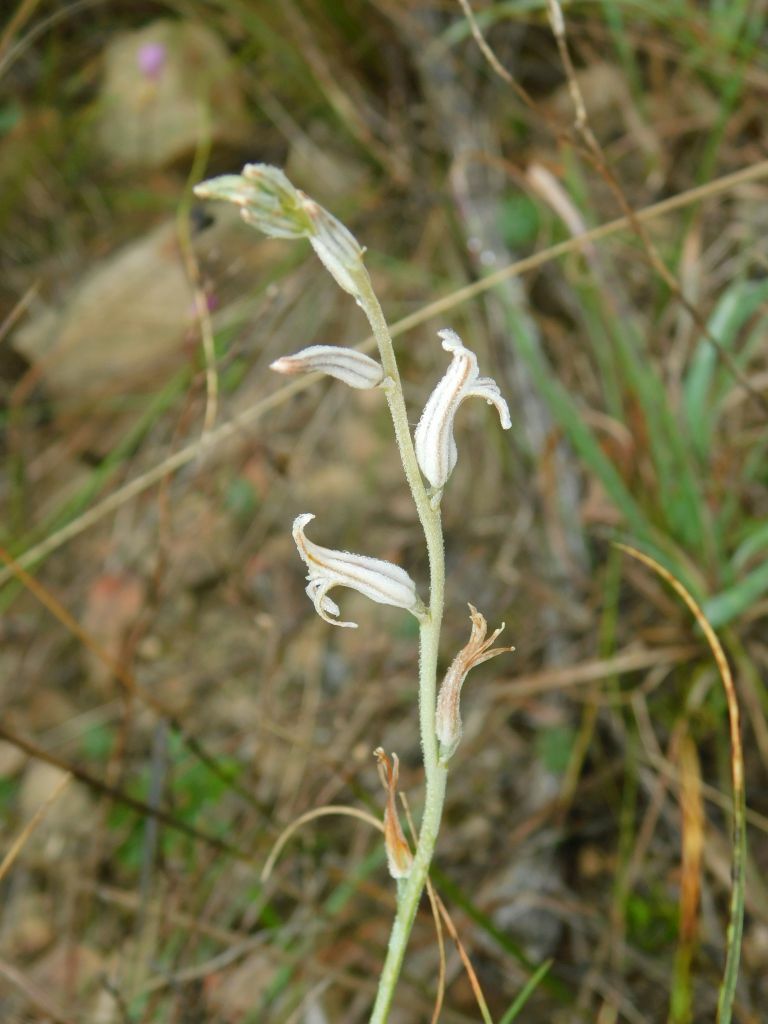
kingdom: Plantae
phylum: Tracheophyta
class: Liliopsida
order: Asparagales
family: Asphodelaceae
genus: Haworthia
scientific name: Haworthia mirabilis
